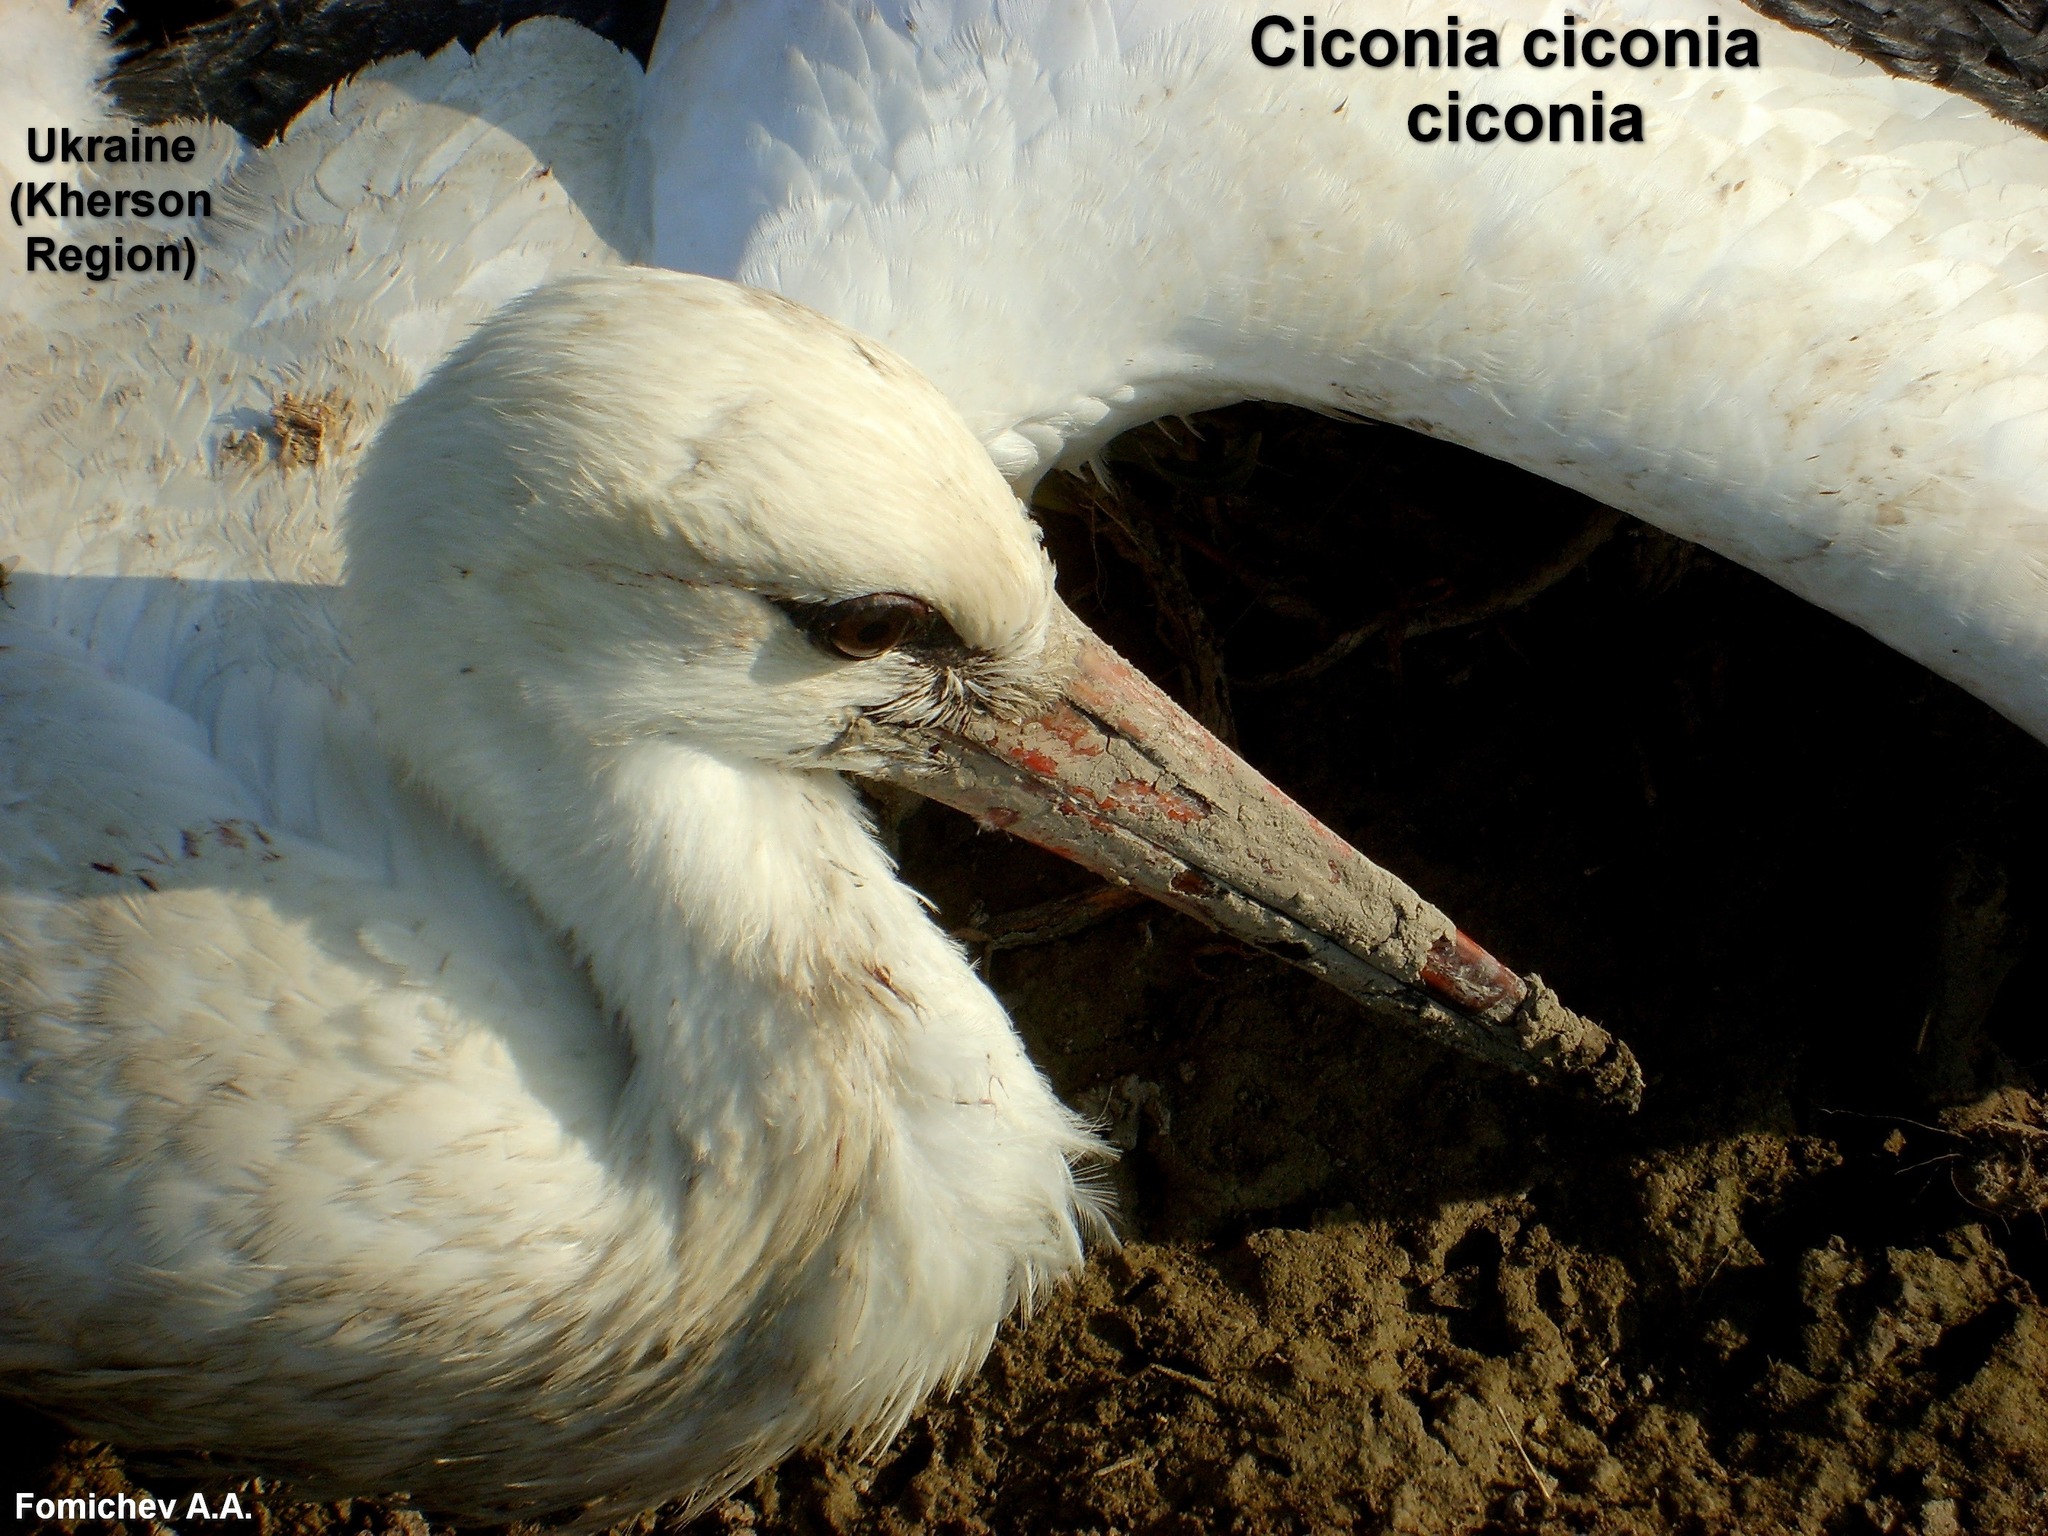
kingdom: Animalia
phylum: Chordata
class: Aves
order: Ciconiiformes
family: Ciconiidae
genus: Ciconia
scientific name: Ciconia ciconia
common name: White stork
